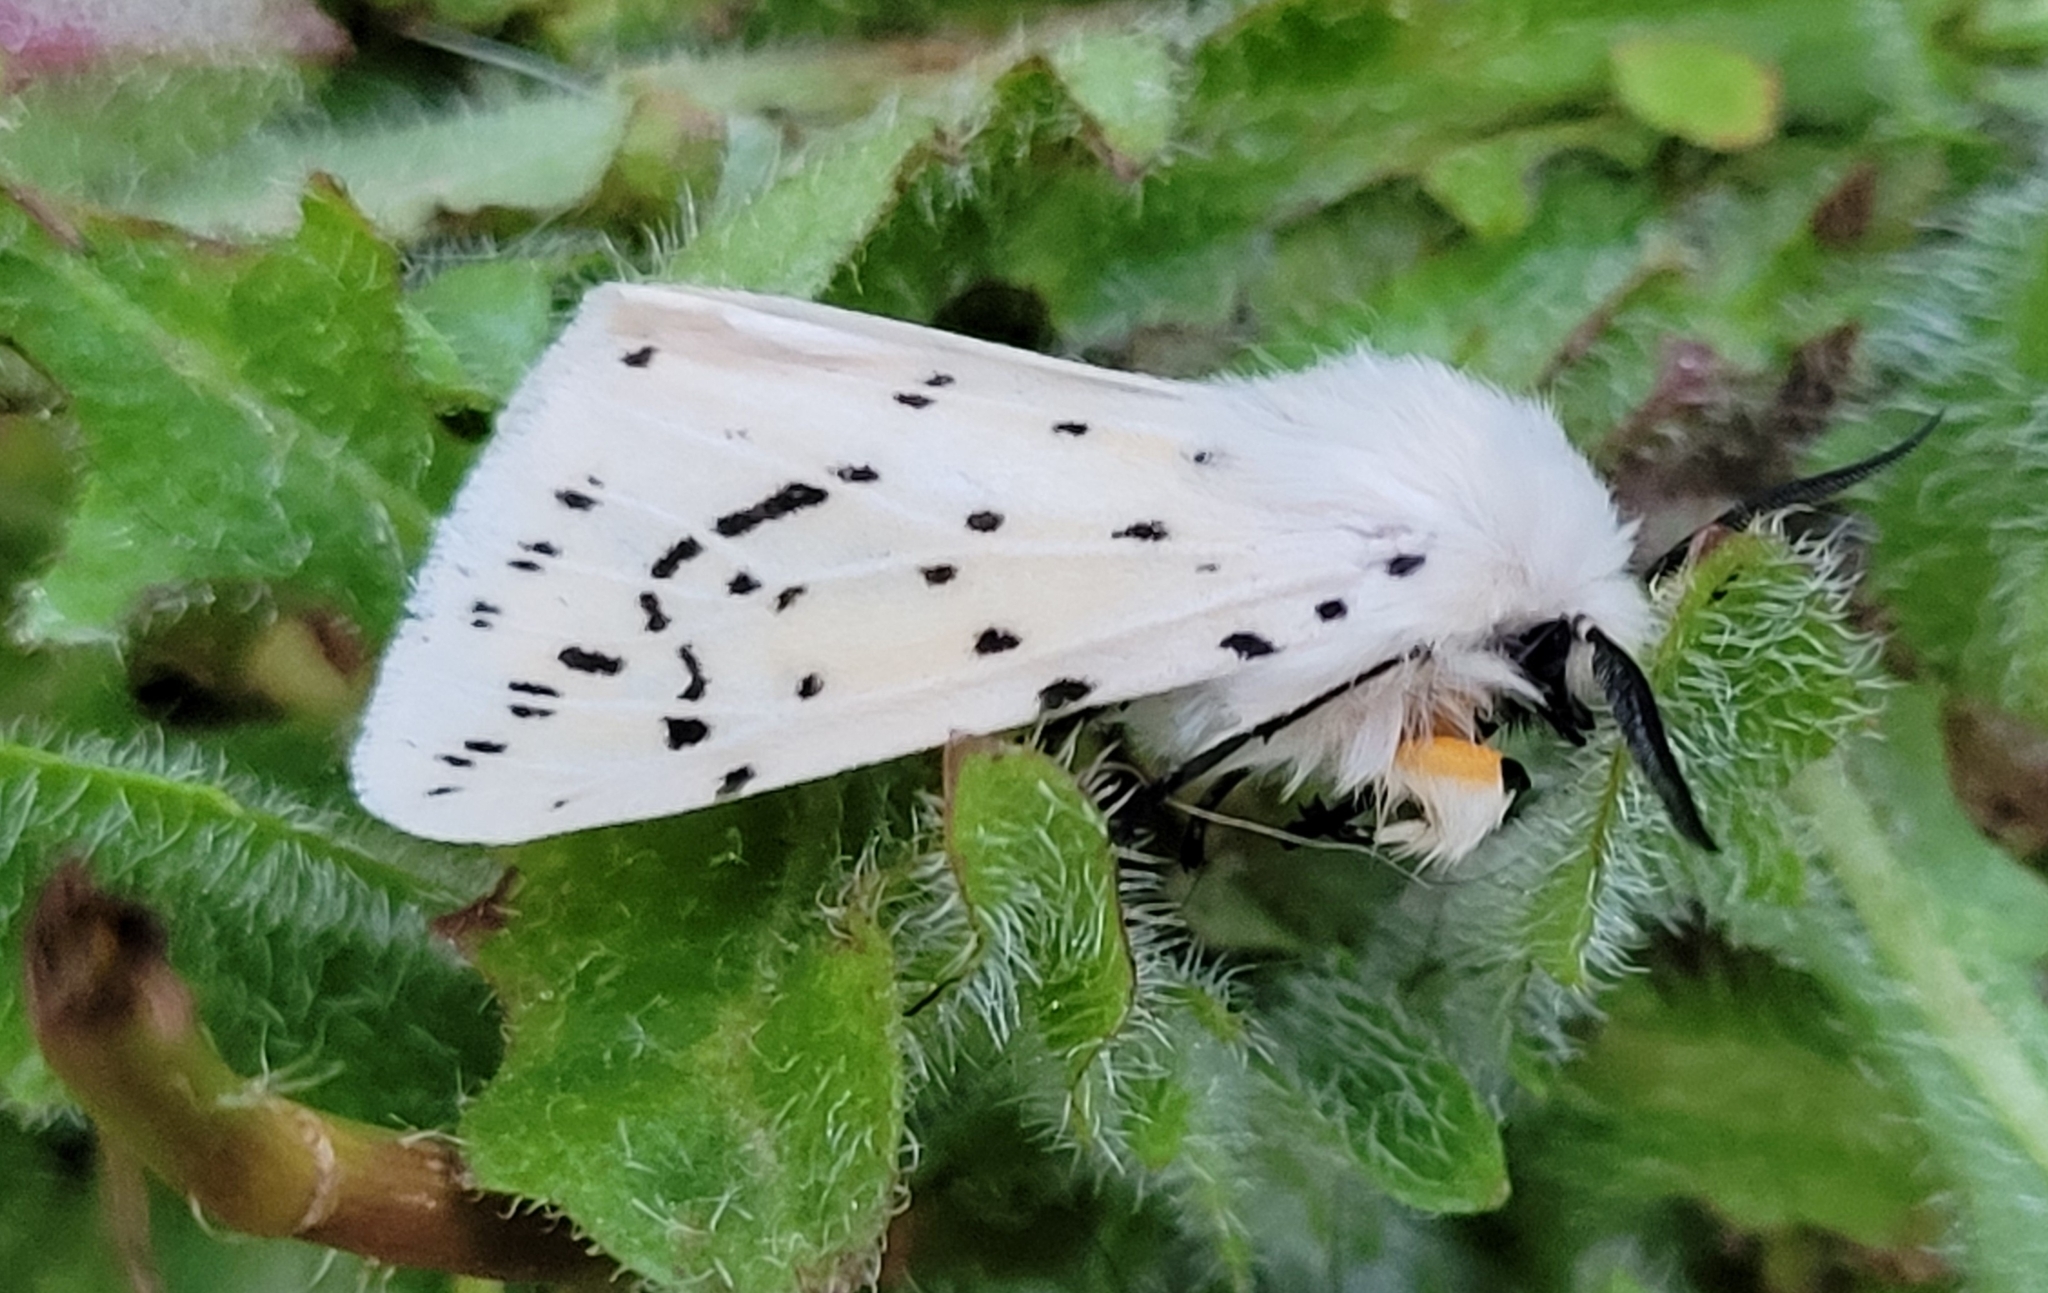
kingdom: Animalia
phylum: Arthropoda
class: Insecta
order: Lepidoptera
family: Erebidae
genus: Spilosoma
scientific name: Spilosoma lubricipeda
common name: White ermine
